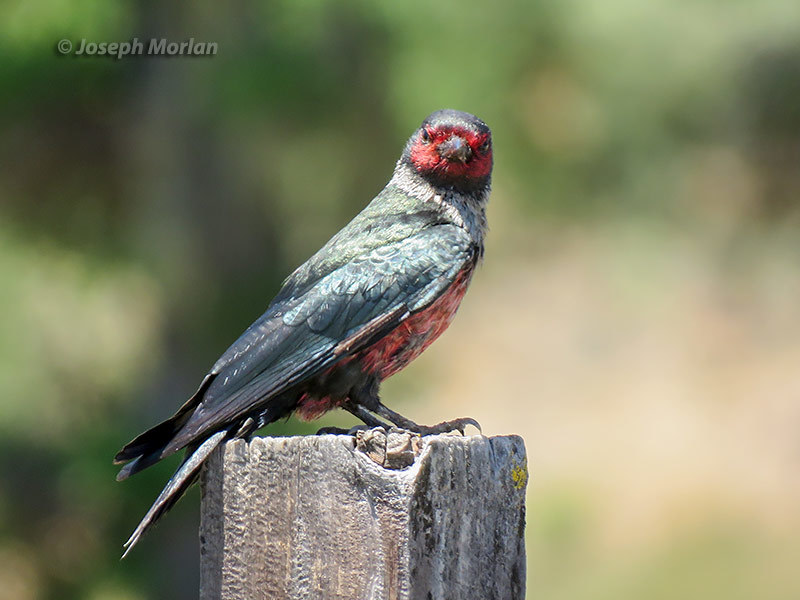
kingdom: Animalia
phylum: Chordata
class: Aves
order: Piciformes
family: Picidae
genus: Melanerpes
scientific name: Melanerpes lewis
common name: Lewis's woodpecker
